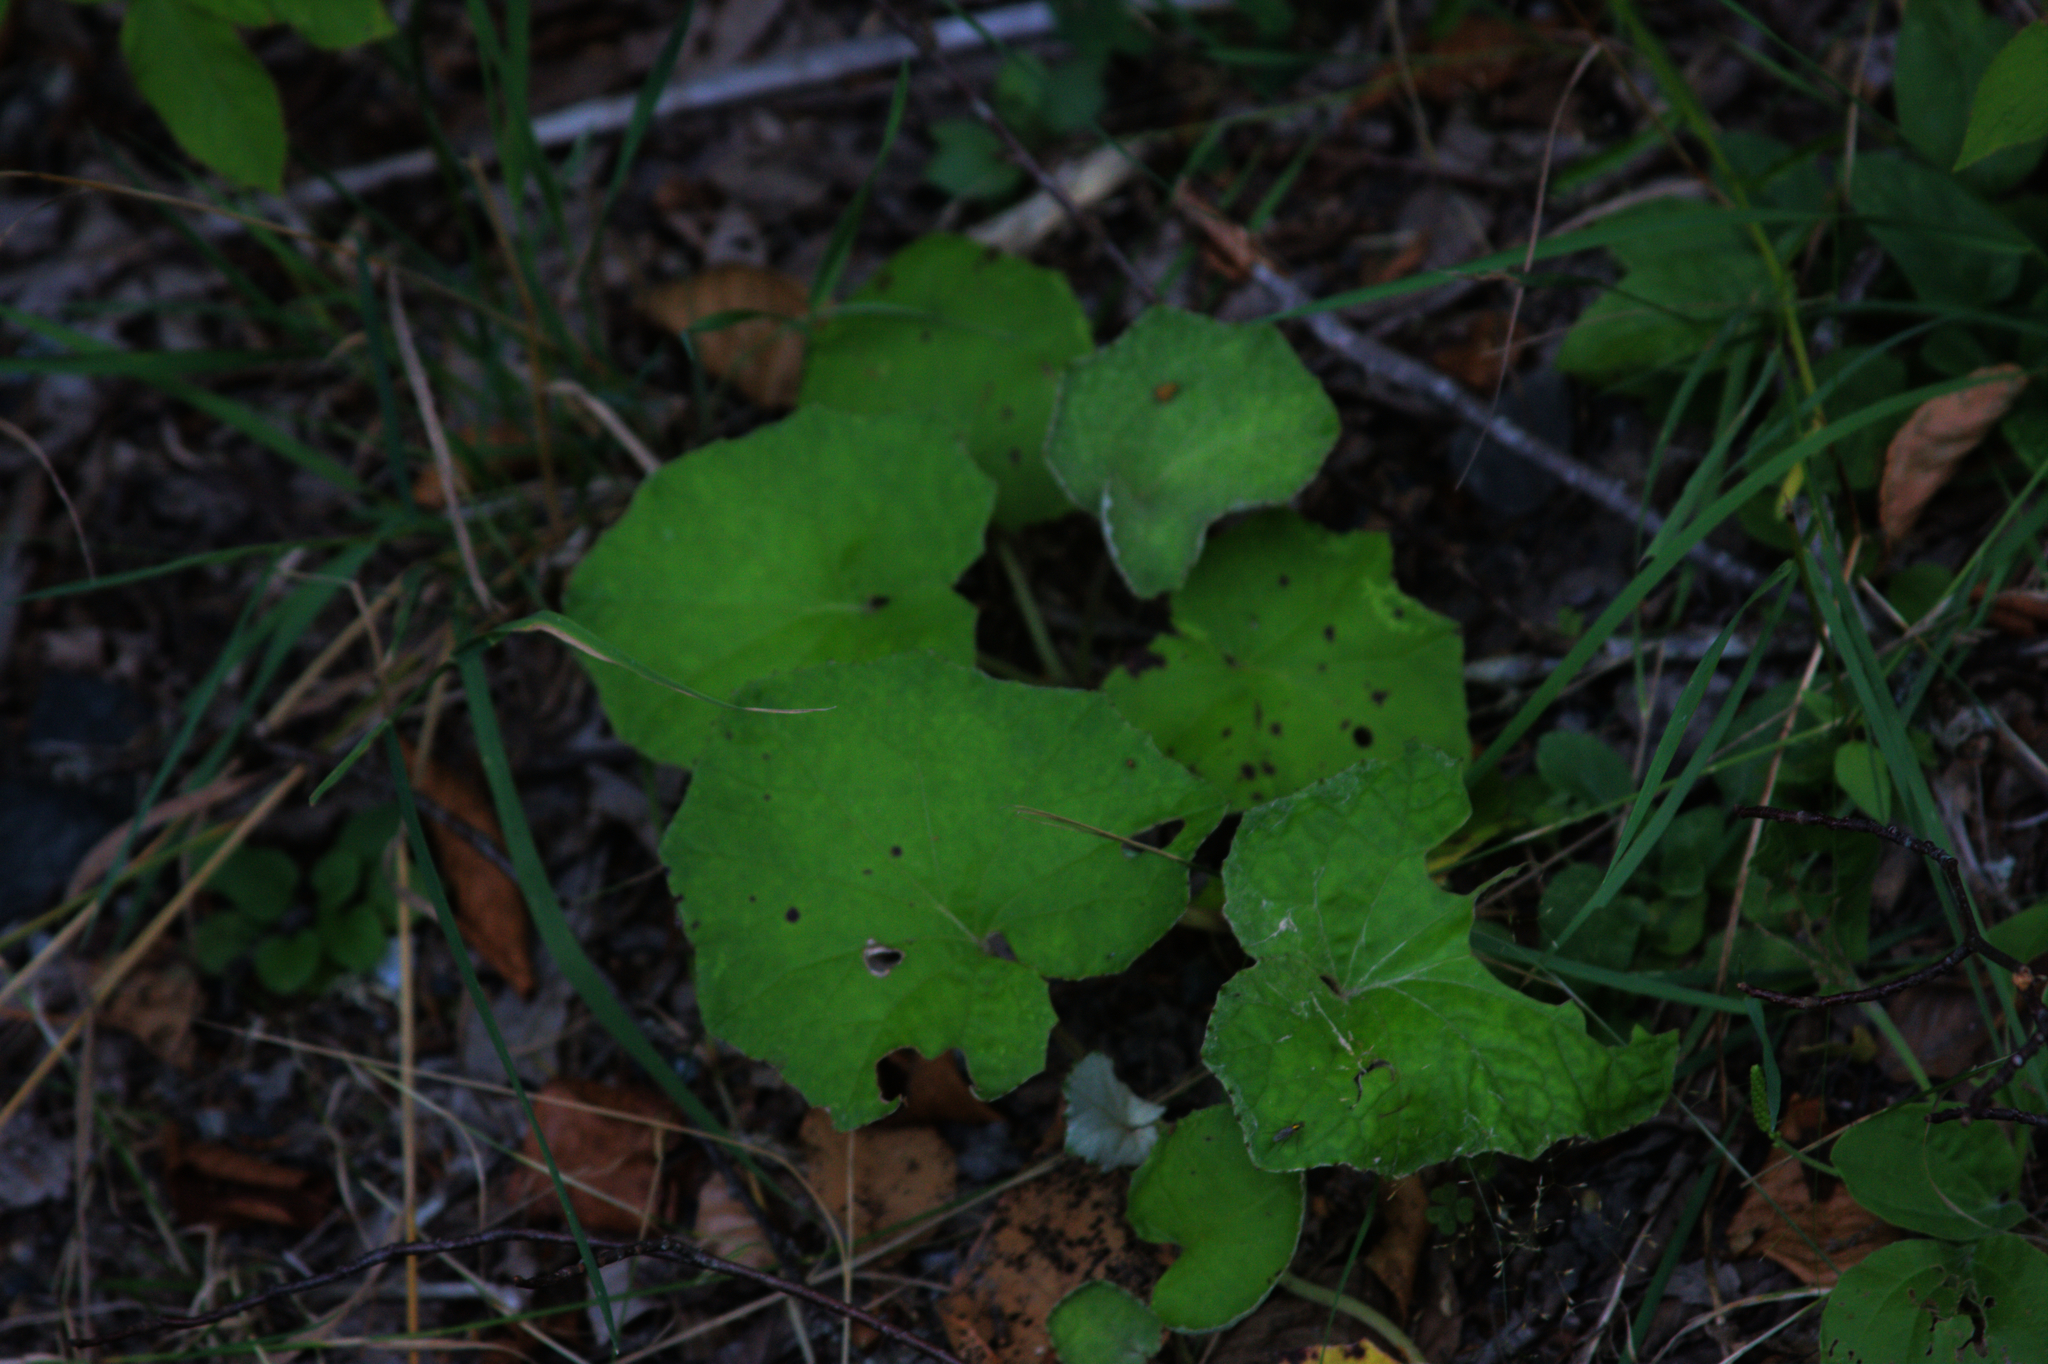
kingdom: Plantae
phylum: Tracheophyta
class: Magnoliopsida
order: Asterales
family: Asteraceae
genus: Tussilago
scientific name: Tussilago farfara
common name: Coltsfoot
